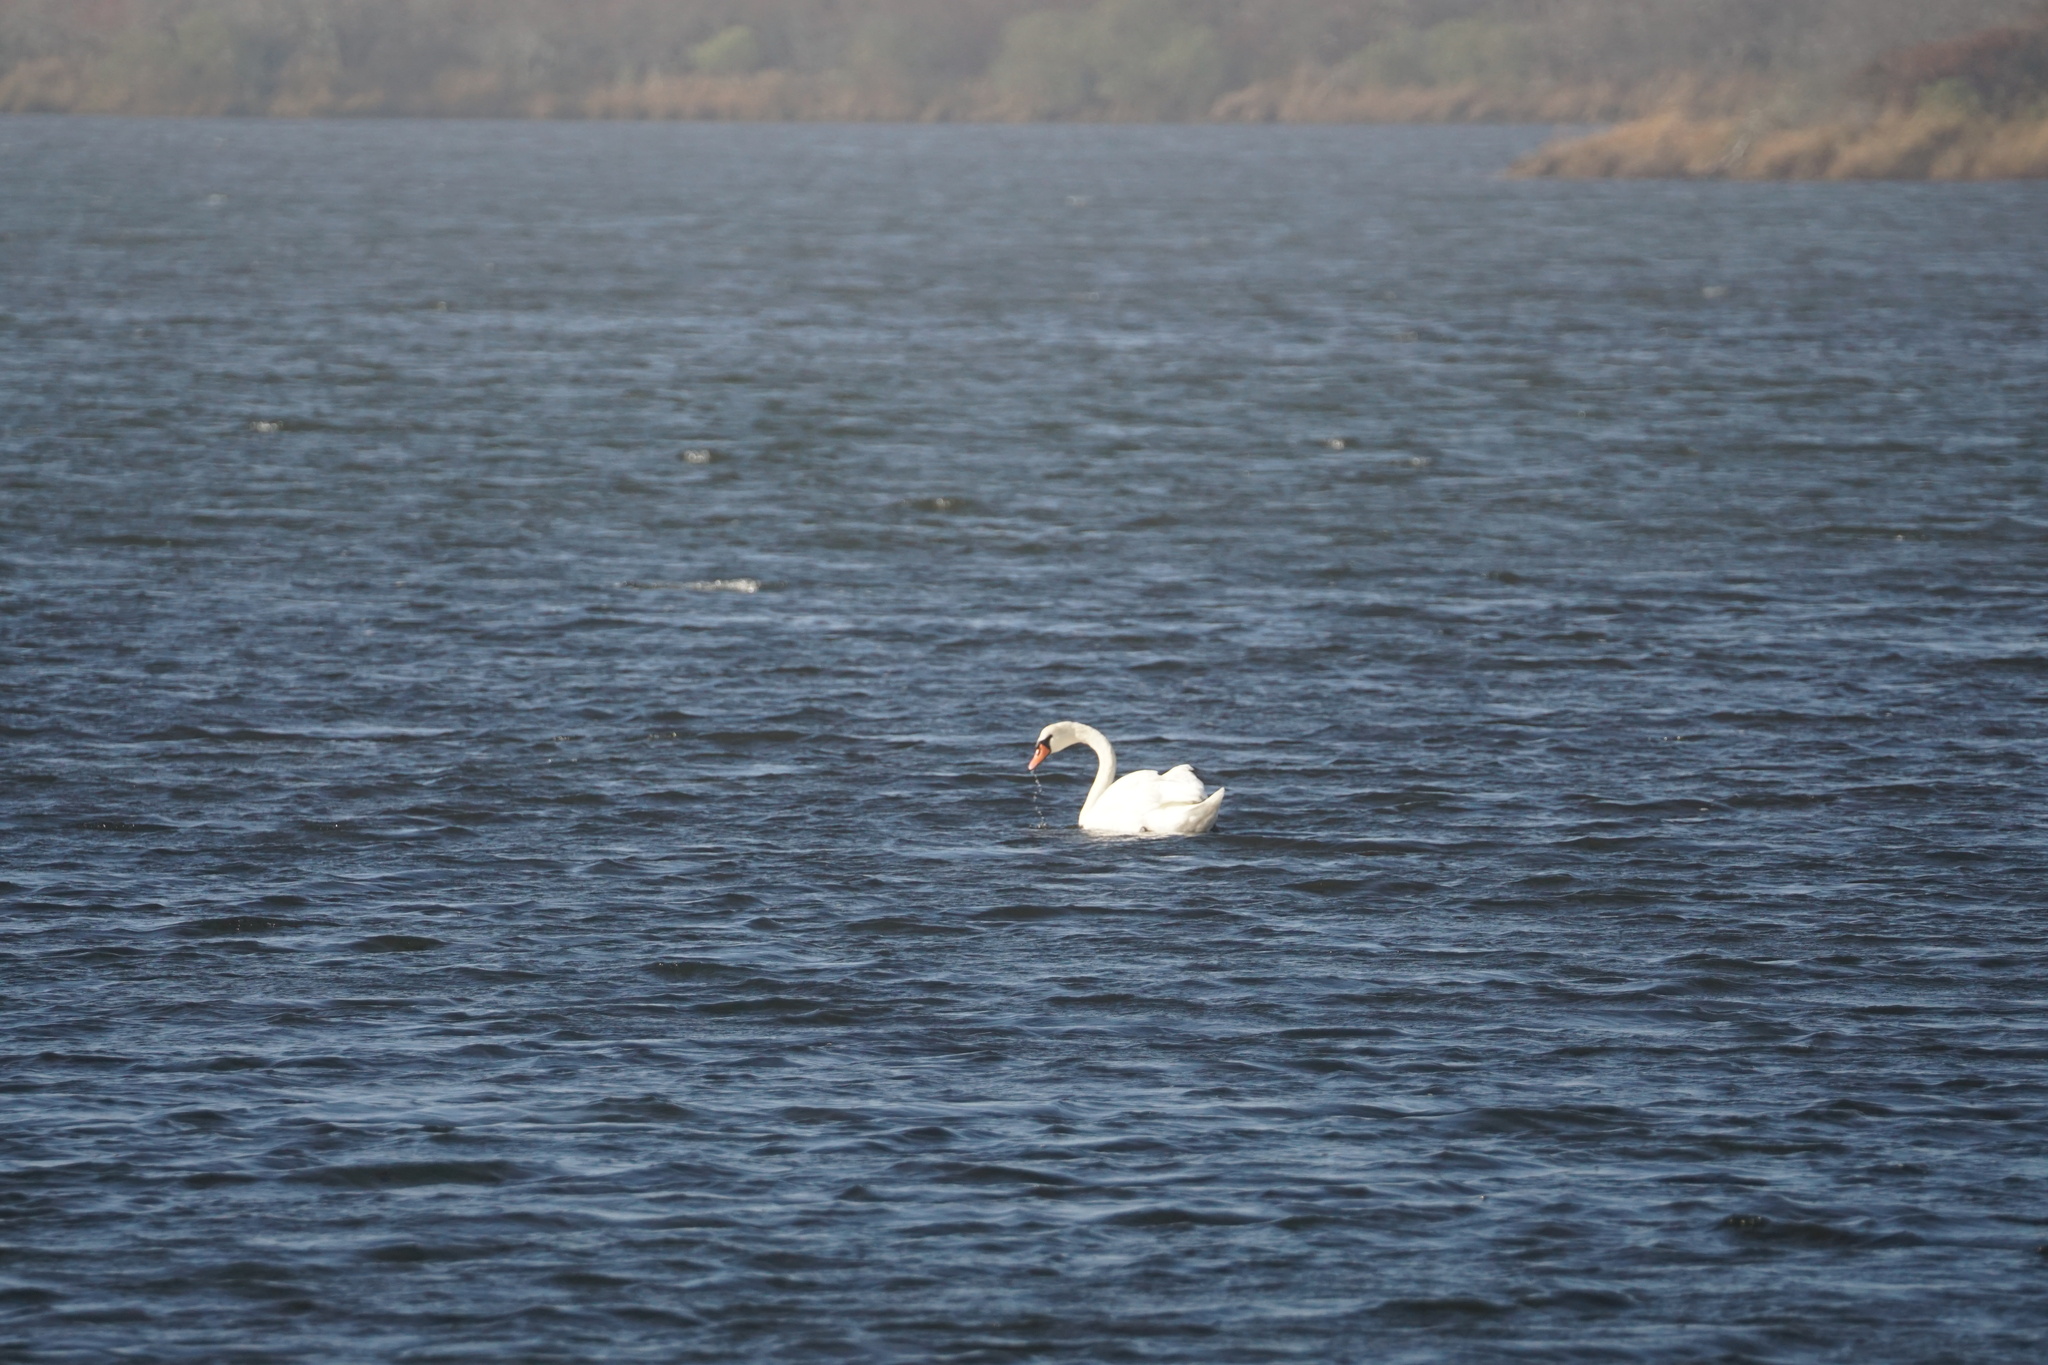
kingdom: Animalia
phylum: Chordata
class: Aves
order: Anseriformes
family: Anatidae
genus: Cygnus
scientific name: Cygnus olor
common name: Mute swan
